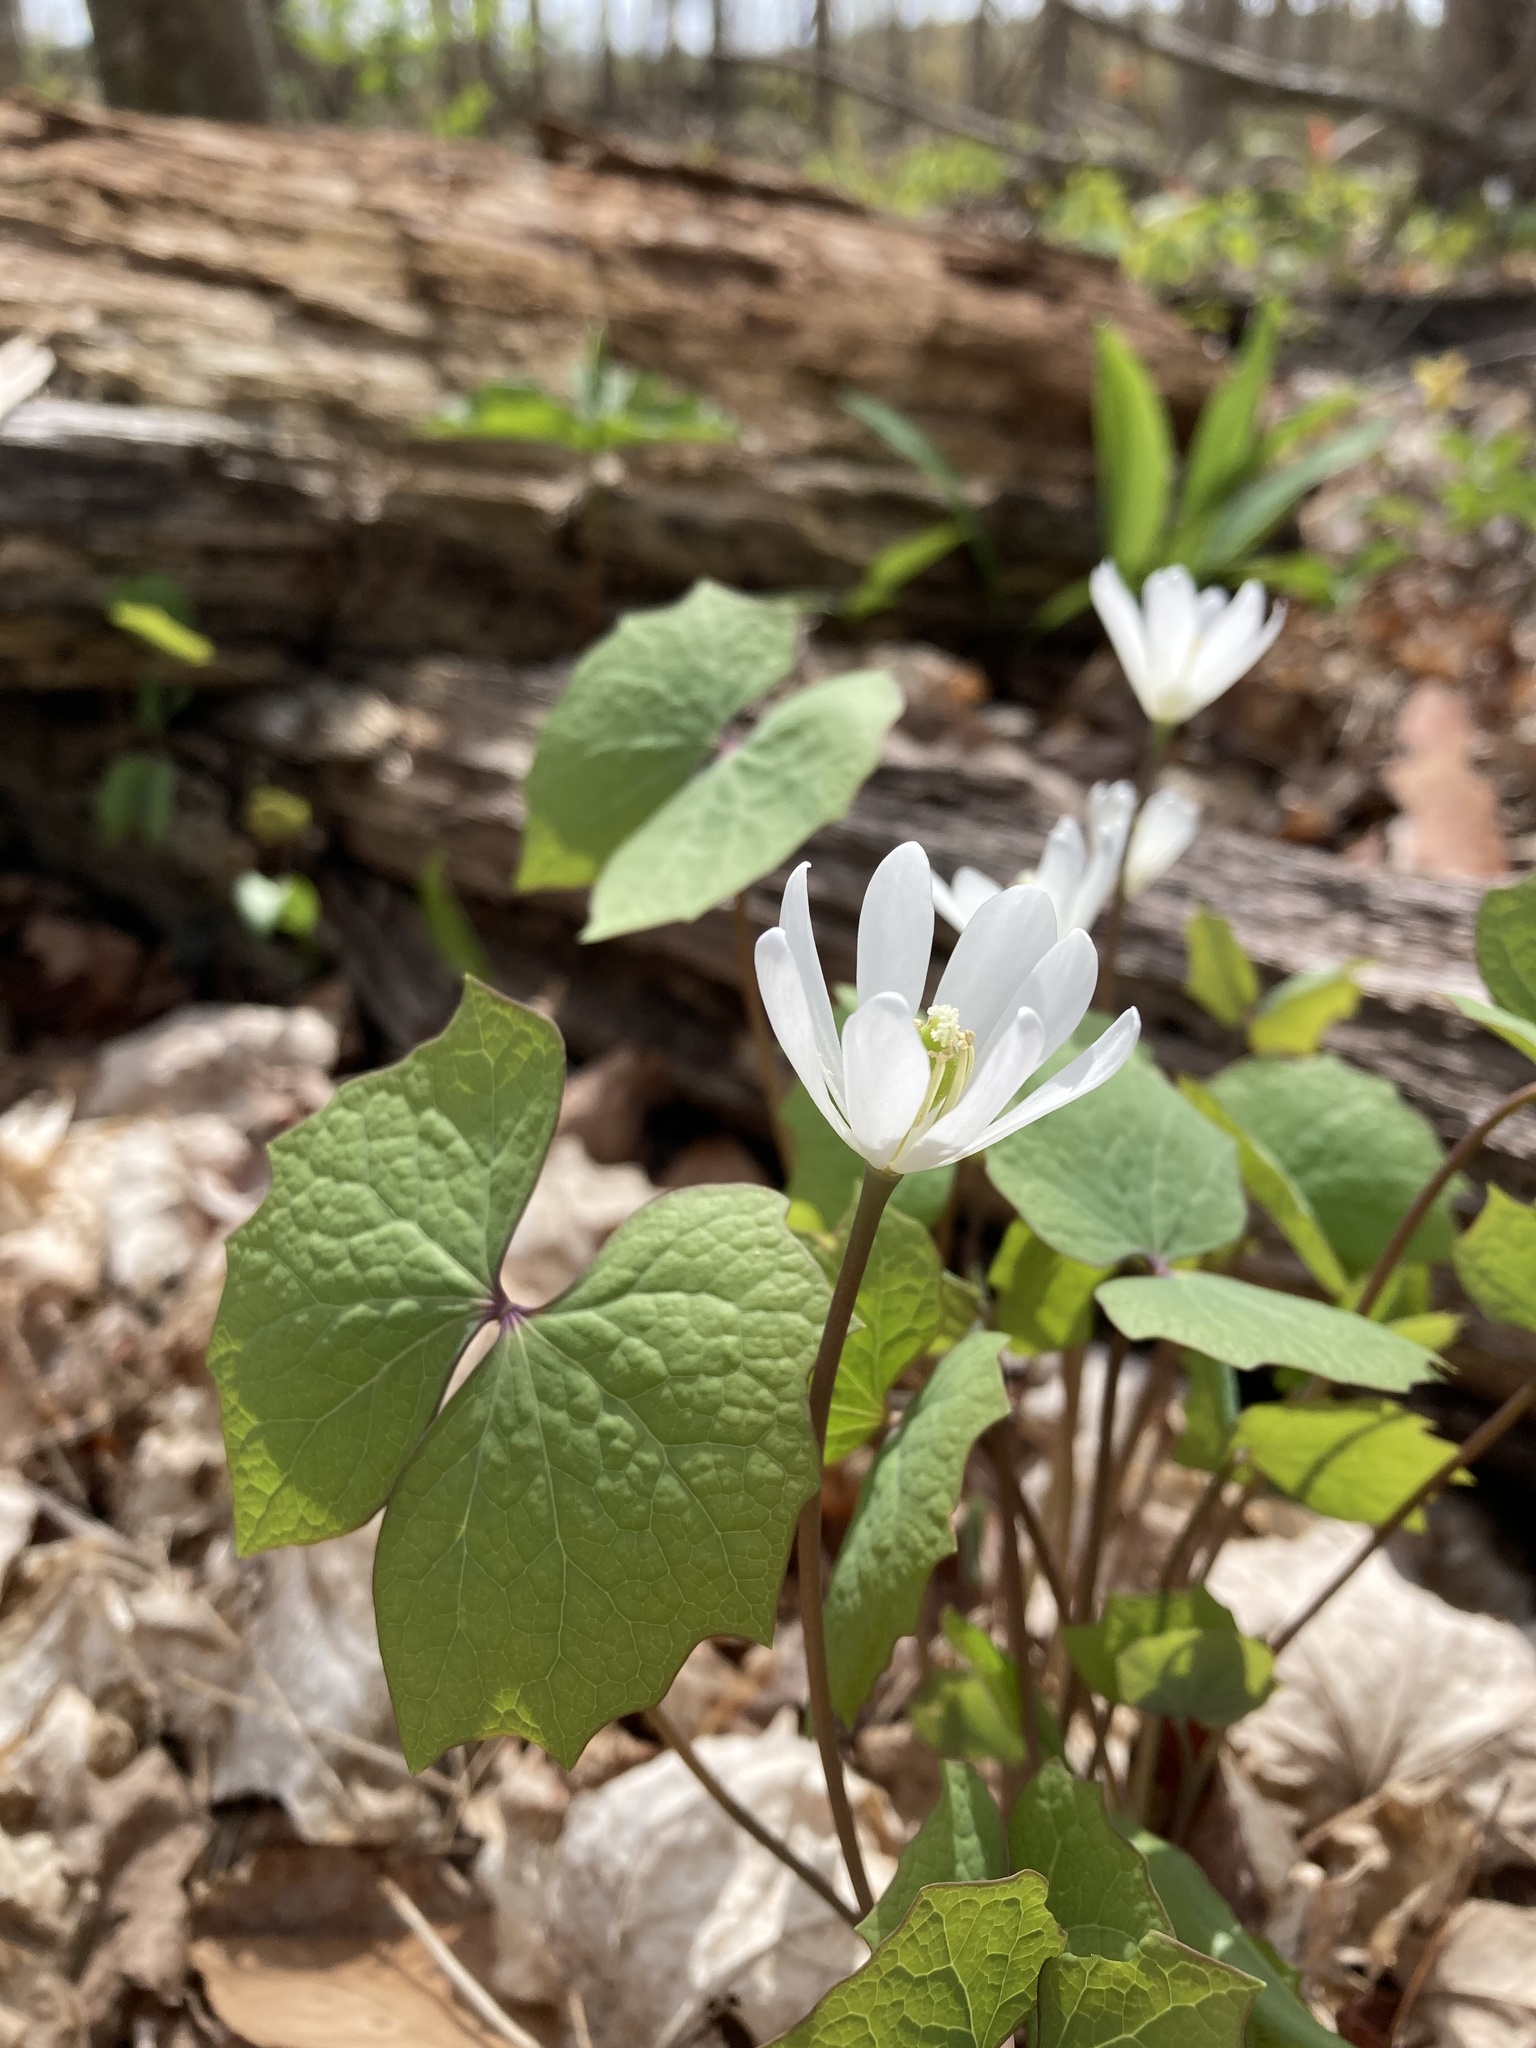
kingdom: Plantae
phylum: Tracheophyta
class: Magnoliopsida
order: Ranunculales
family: Berberidaceae
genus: Jeffersonia
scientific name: Jeffersonia diphylla
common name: Rheumatism-root
